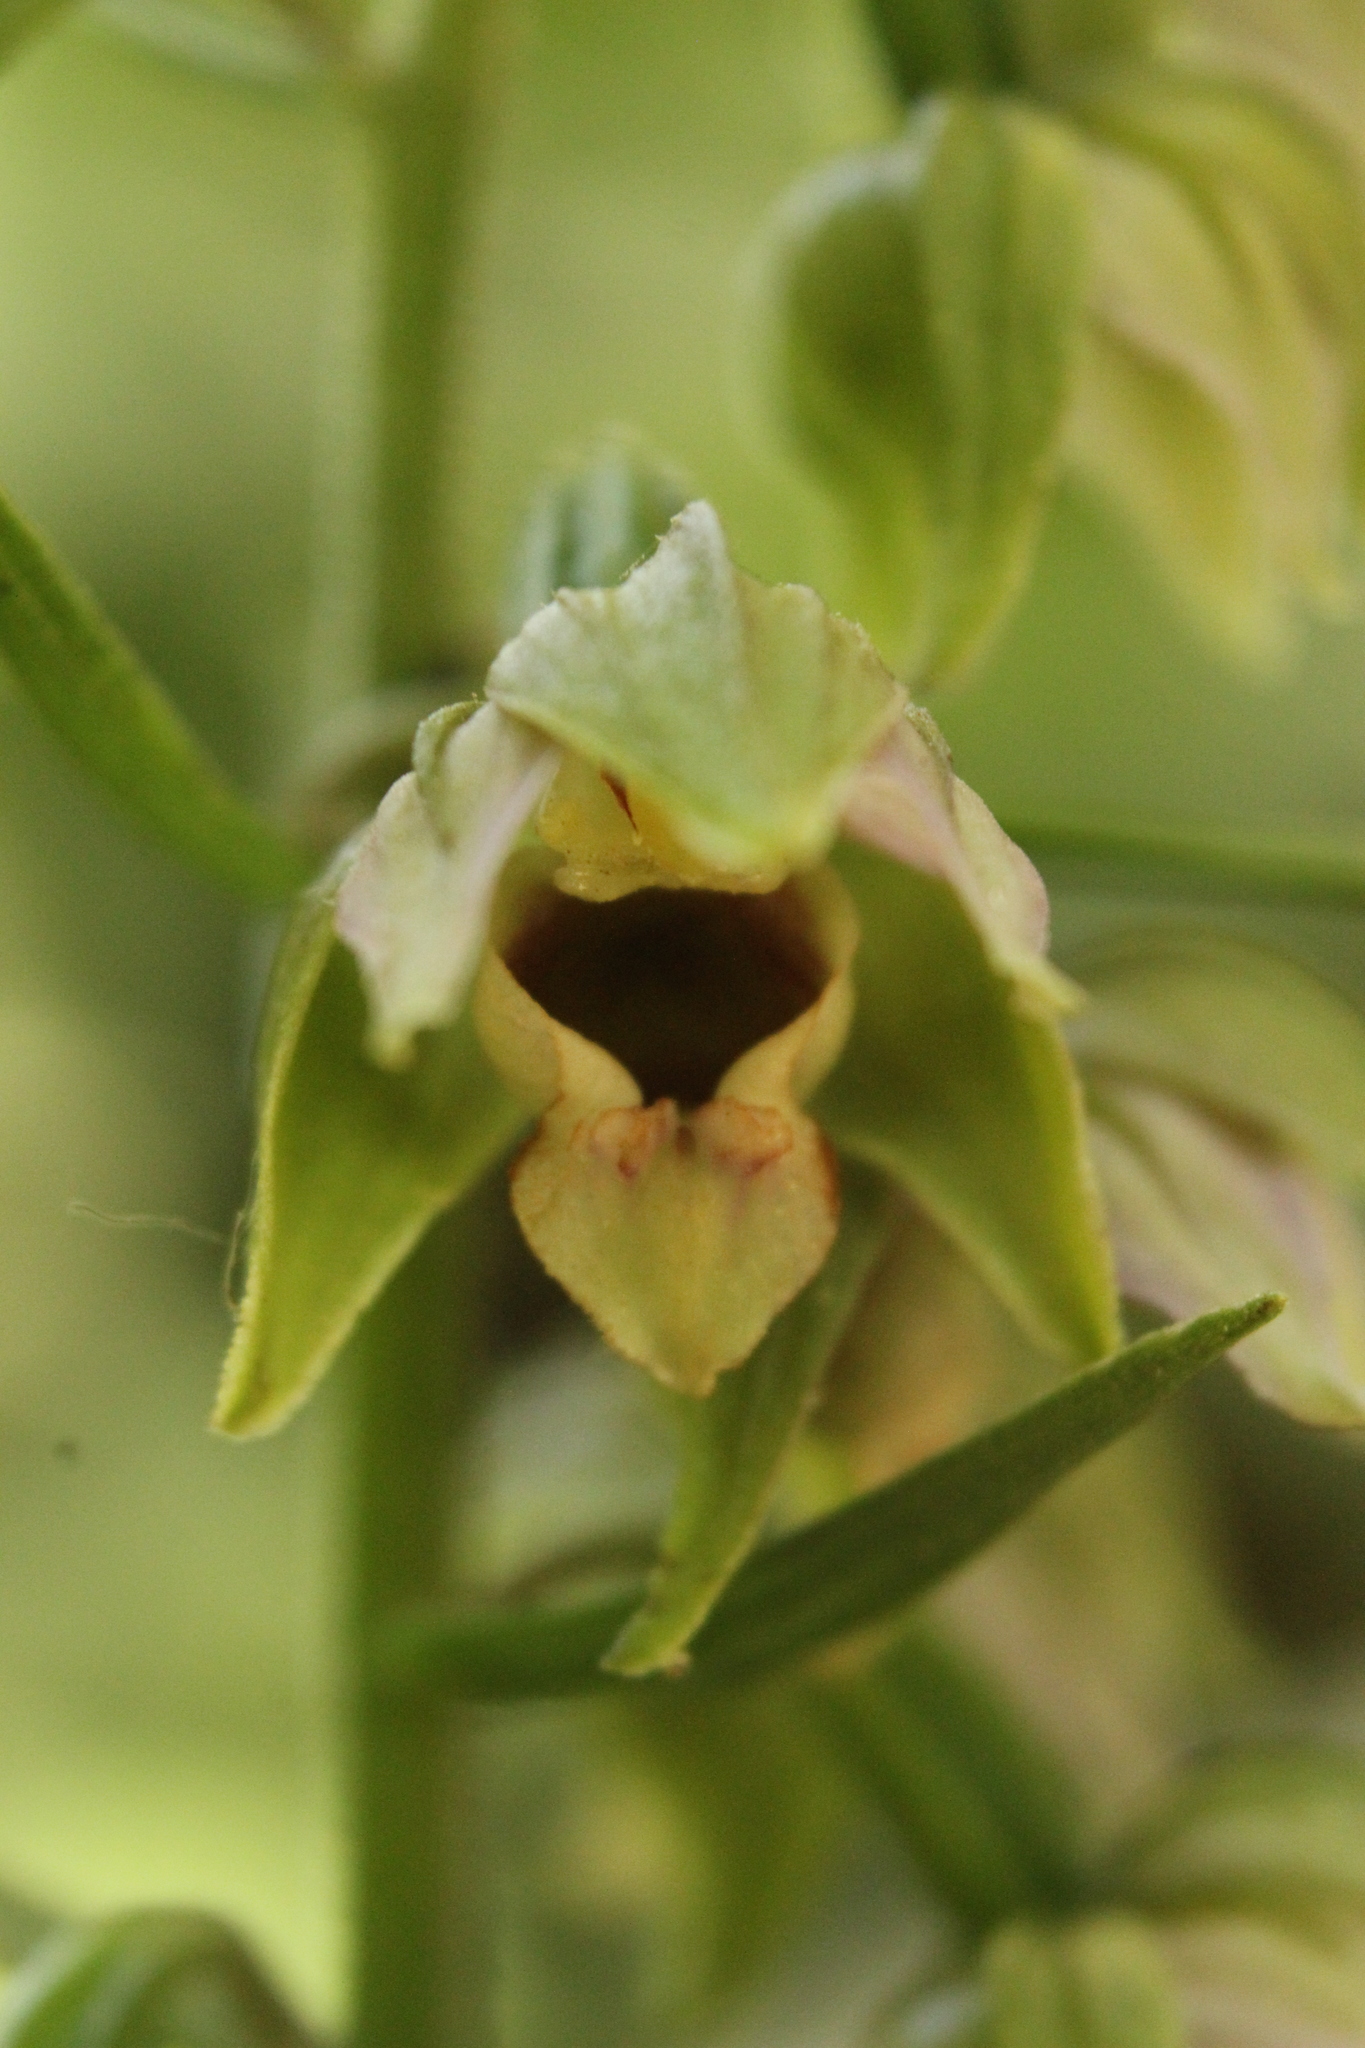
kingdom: Plantae
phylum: Tracheophyta
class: Liliopsida
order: Asparagales
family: Orchidaceae
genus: Epipactis
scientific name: Epipactis helleborine
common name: Broad-leaved helleborine
